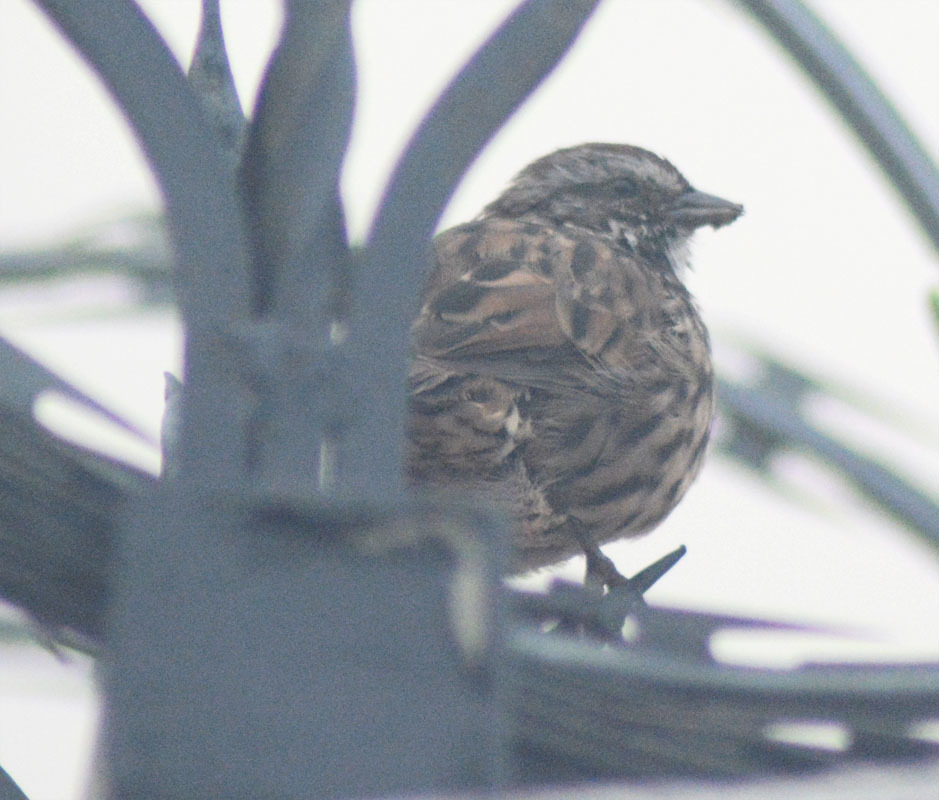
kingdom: Animalia
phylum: Chordata
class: Aves
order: Passeriformes
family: Passerellidae
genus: Melospiza
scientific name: Melospiza melodia
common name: Song sparrow
